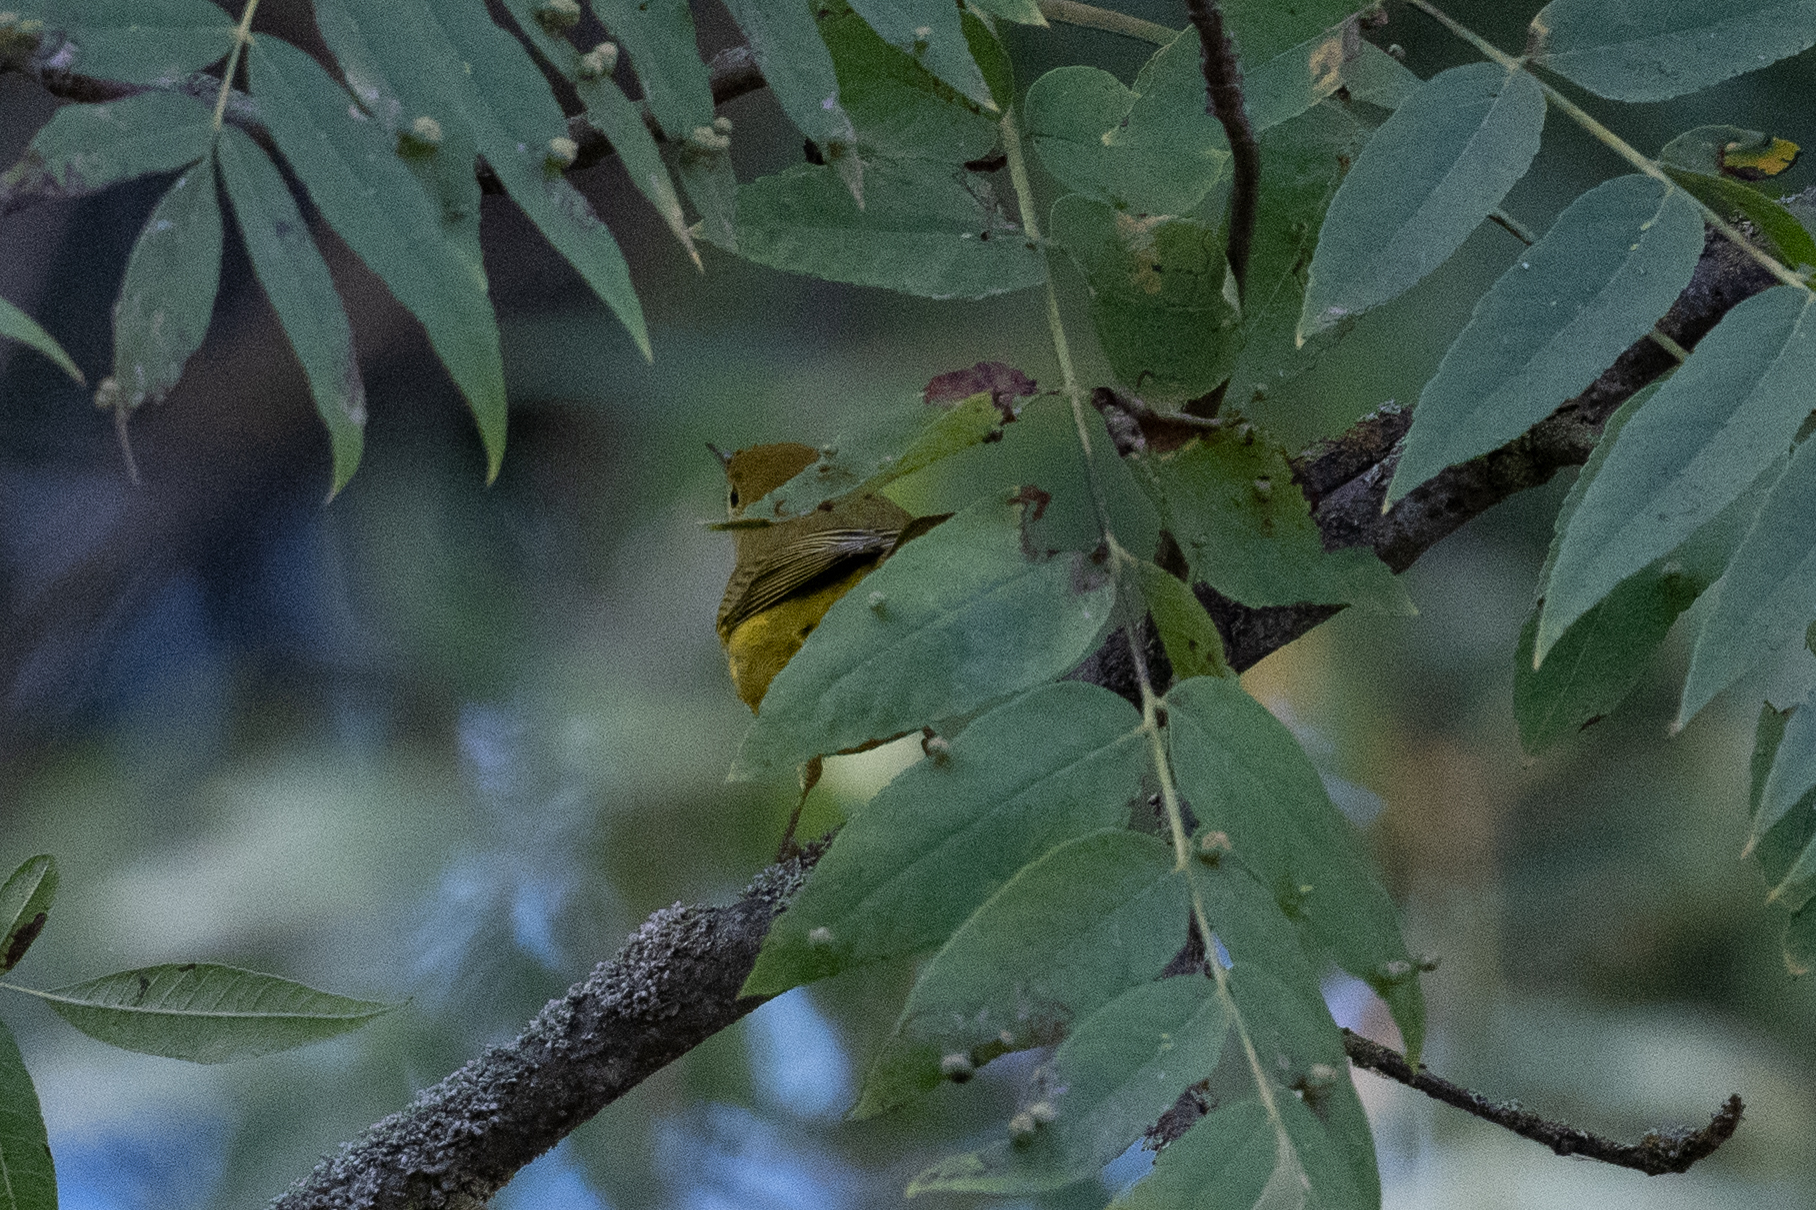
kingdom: Animalia
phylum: Chordata
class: Aves
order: Passeriformes
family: Parulidae
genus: Cardellina
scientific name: Cardellina pusilla
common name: Wilson's warbler
